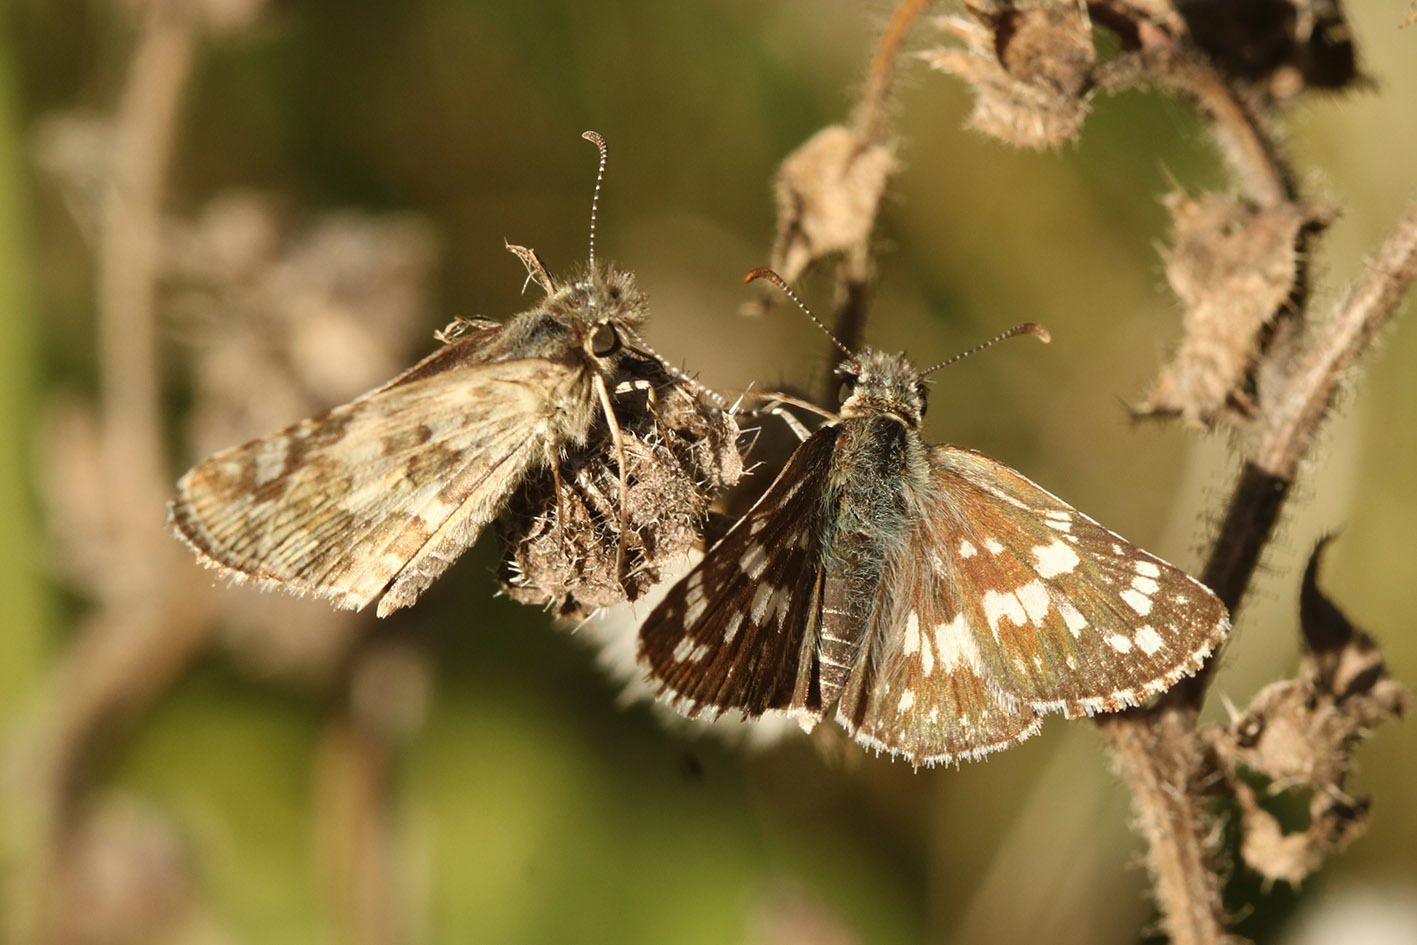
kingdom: Animalia
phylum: Arthropoda
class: Insecta
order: Lepidoptera
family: Hesperiidae
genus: Burnsius
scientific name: Burnsius orcynoides
